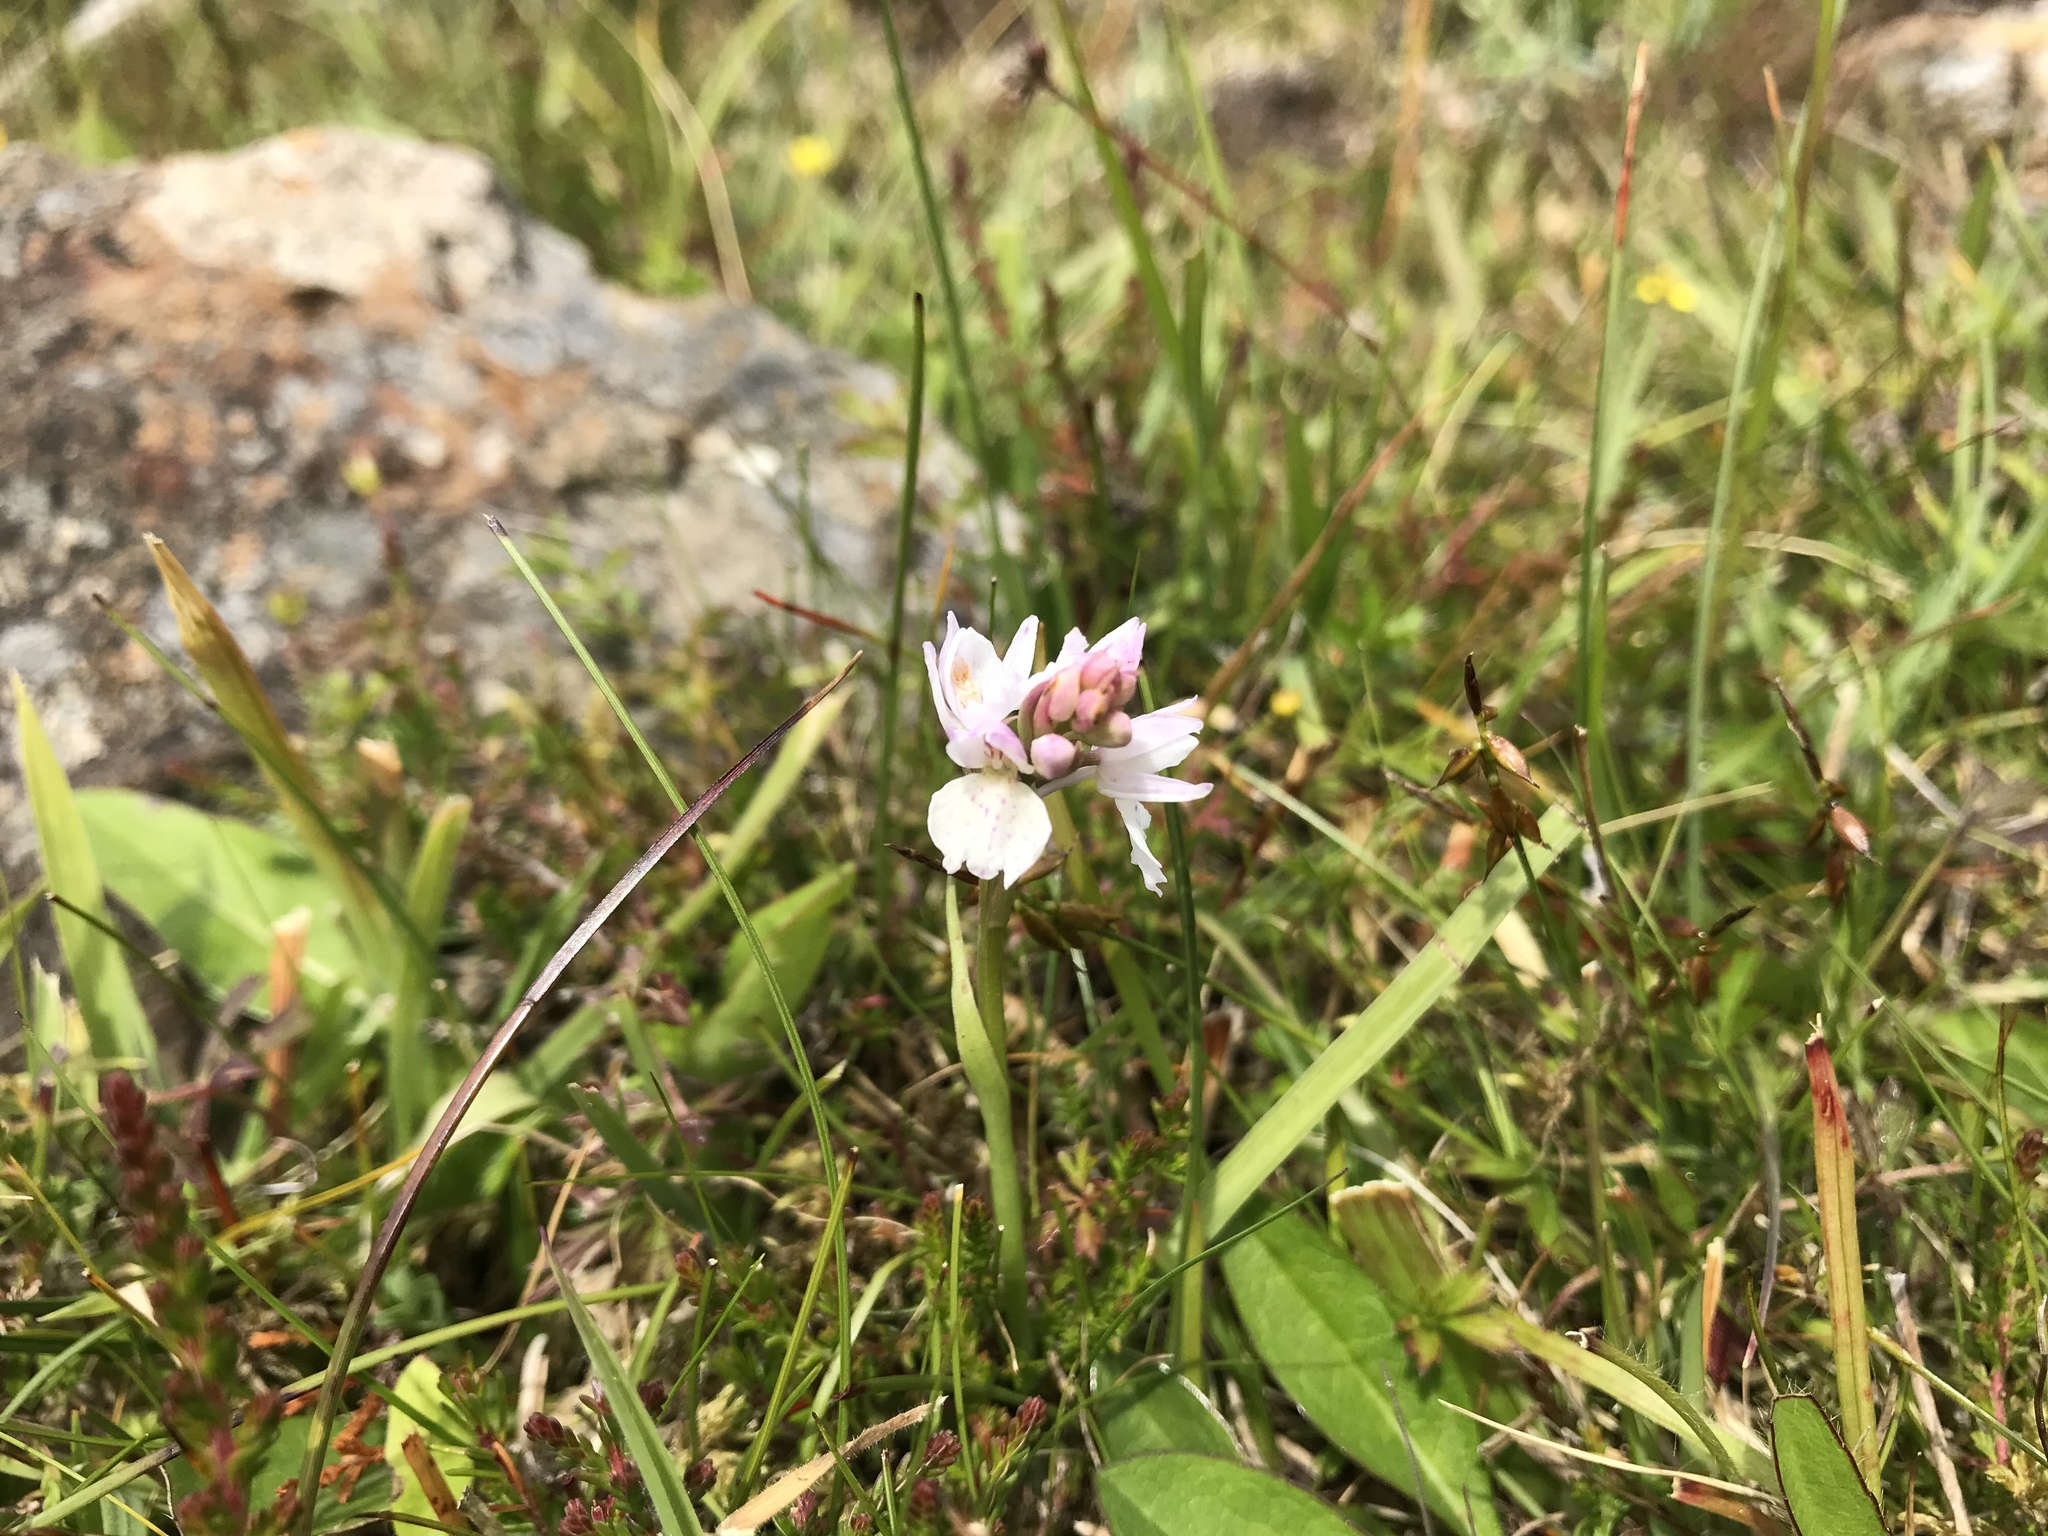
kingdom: Plantae
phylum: Tracheophyta
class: Liliopsida
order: Asparagales
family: Orchidaceae
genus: Dactylorhiza
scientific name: Dactylorhiza maculata
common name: Heath spotted-orchid
